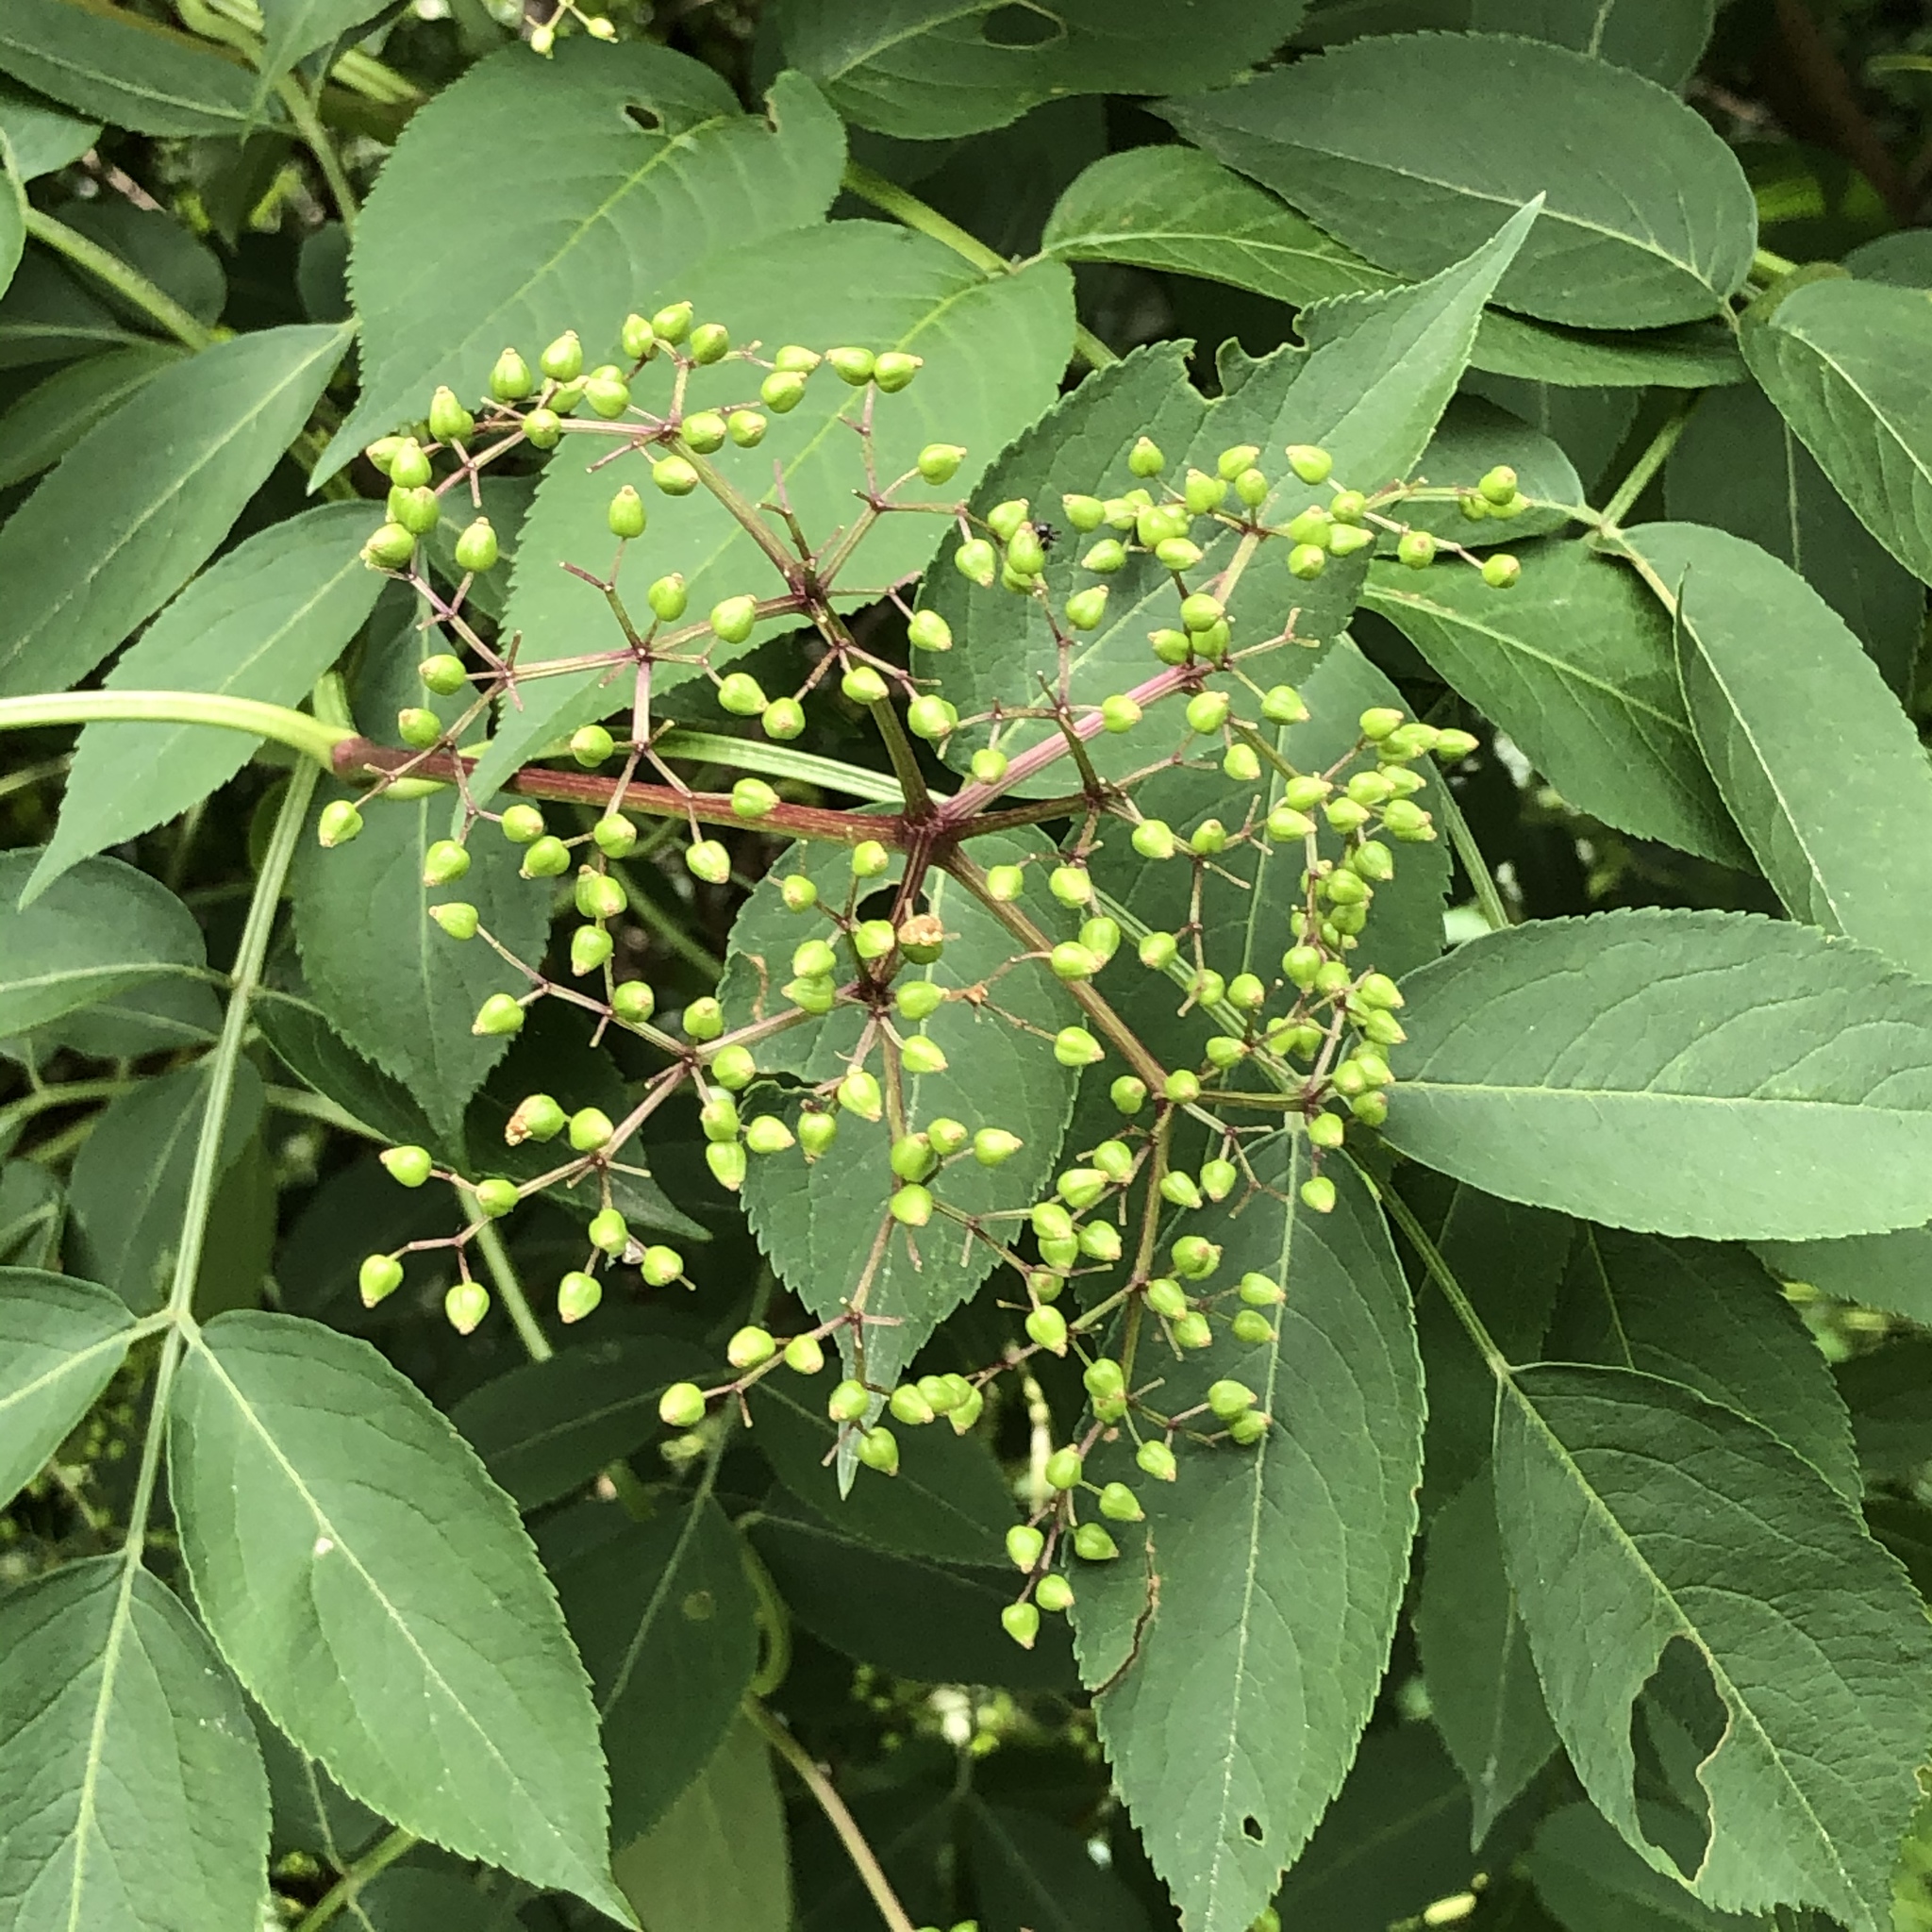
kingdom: Plantae
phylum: Tracheophyta
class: Magnoliopsida
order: Dipsacales
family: Viburnaceae
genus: Sambucus
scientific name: Sambucus canadensis
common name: American elder
